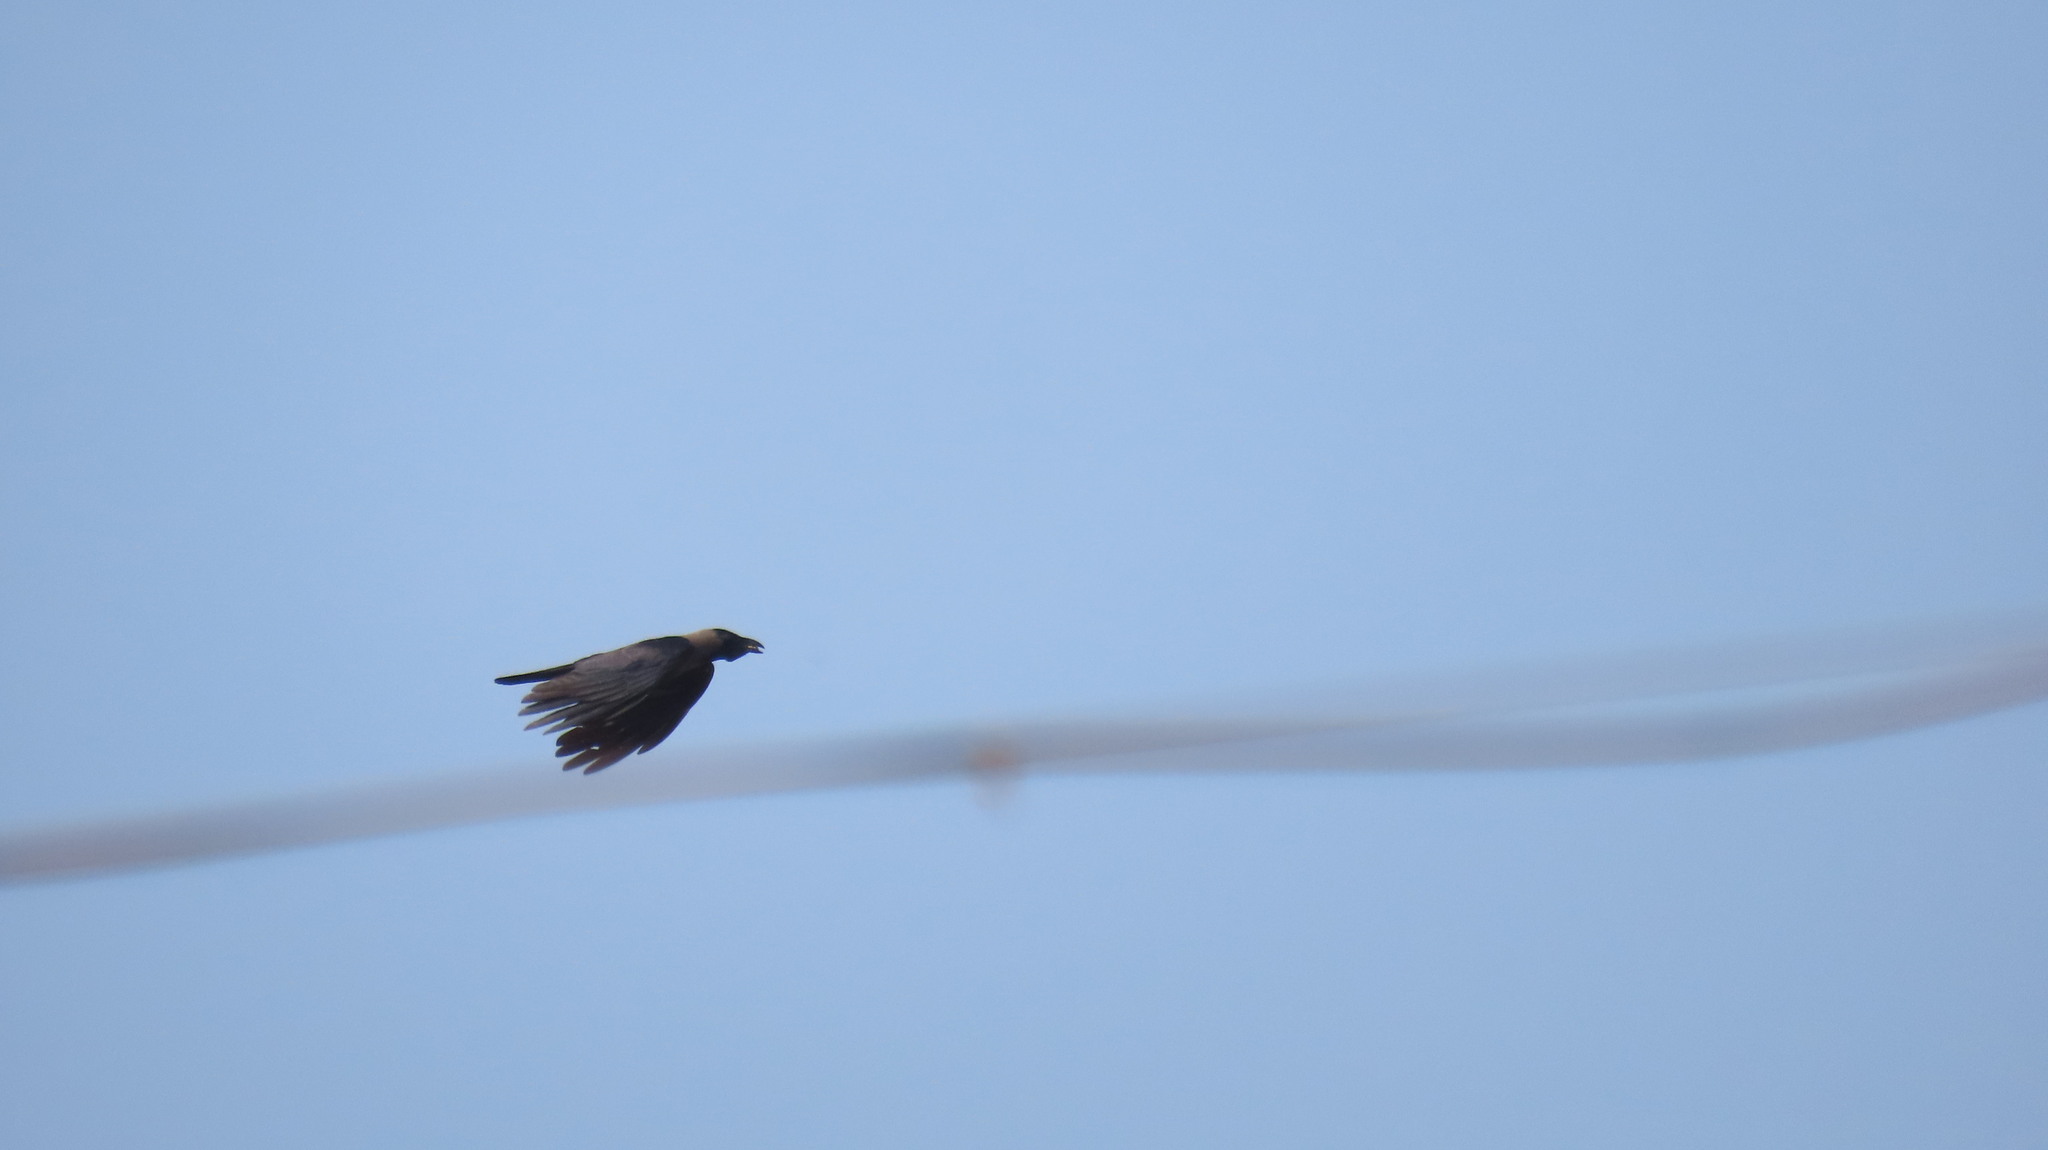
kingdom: Animalia
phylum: Chordata
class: Aves
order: Passeriformes
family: Corvidae
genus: Corvus
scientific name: Corvus splendens
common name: House crow
